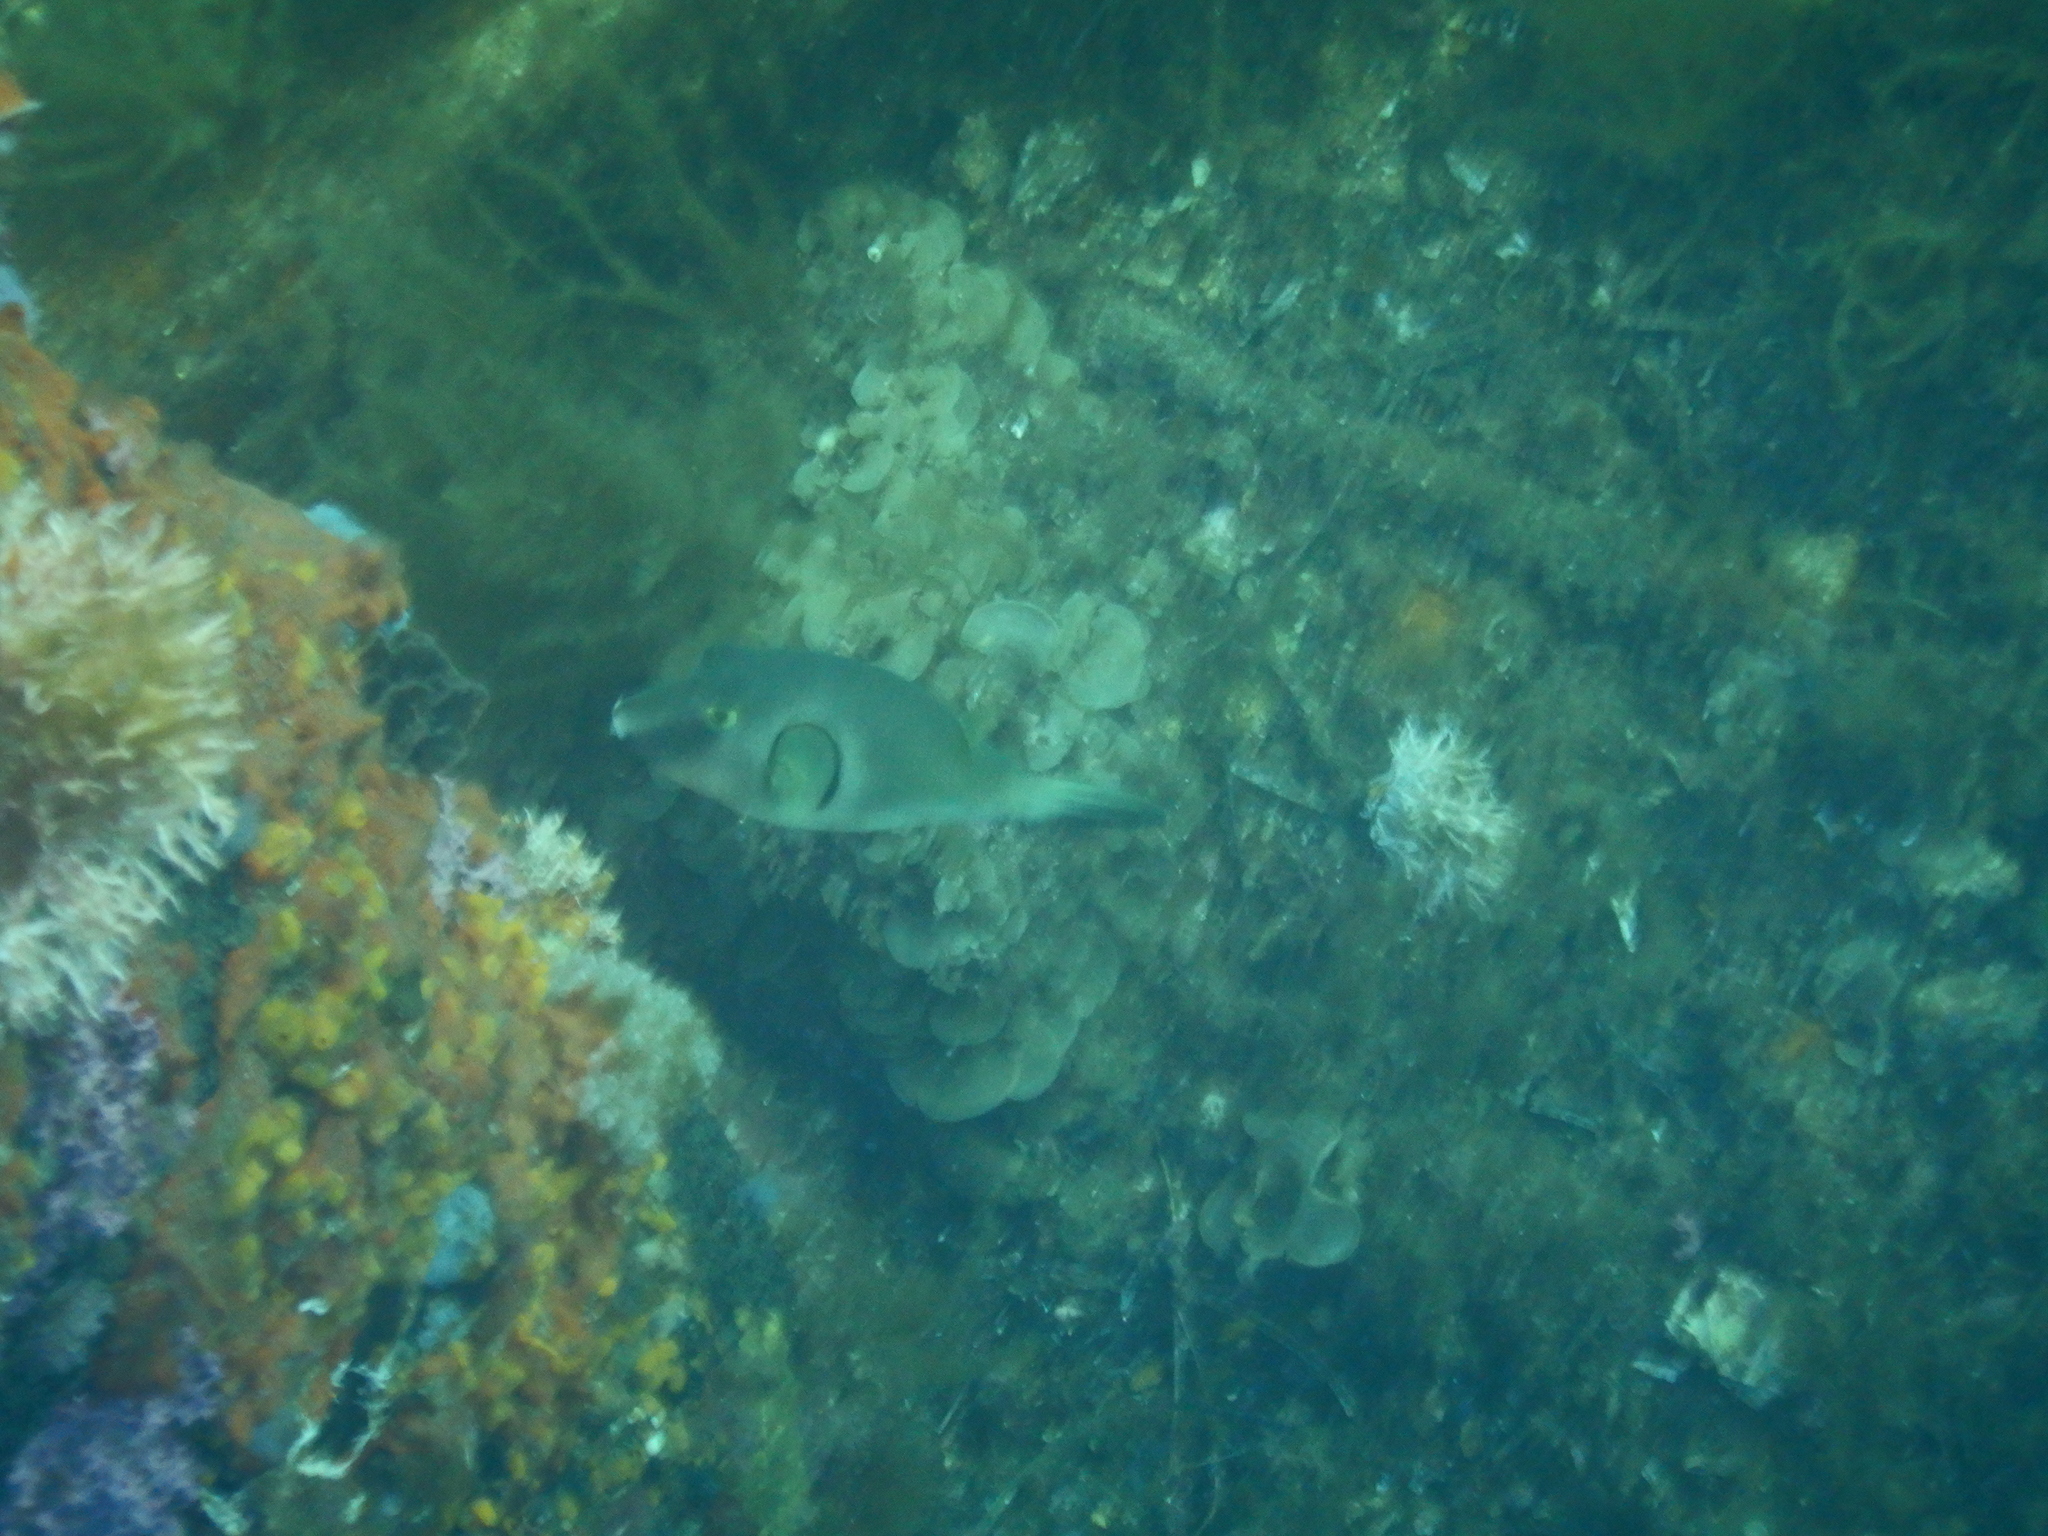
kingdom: Animalia
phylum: Chordata
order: Tetraodontiformes
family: Tetraodontidae
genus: Omegophora
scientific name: Omegophora armilla
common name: Ringed pufferfish
